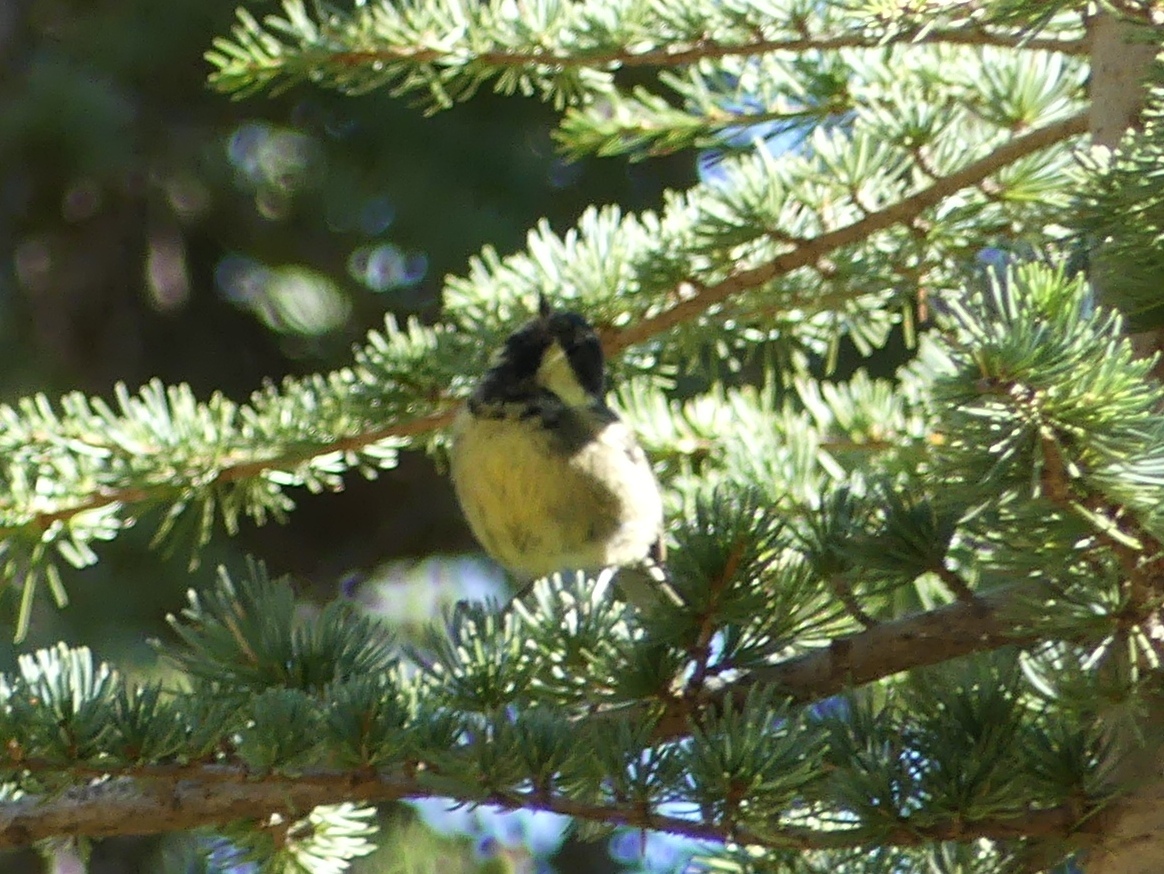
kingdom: Animalia
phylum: Chordata
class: Aves
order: Passeriformes
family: Paridae
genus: Periparus
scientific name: Periparus ater
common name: Coal tit
